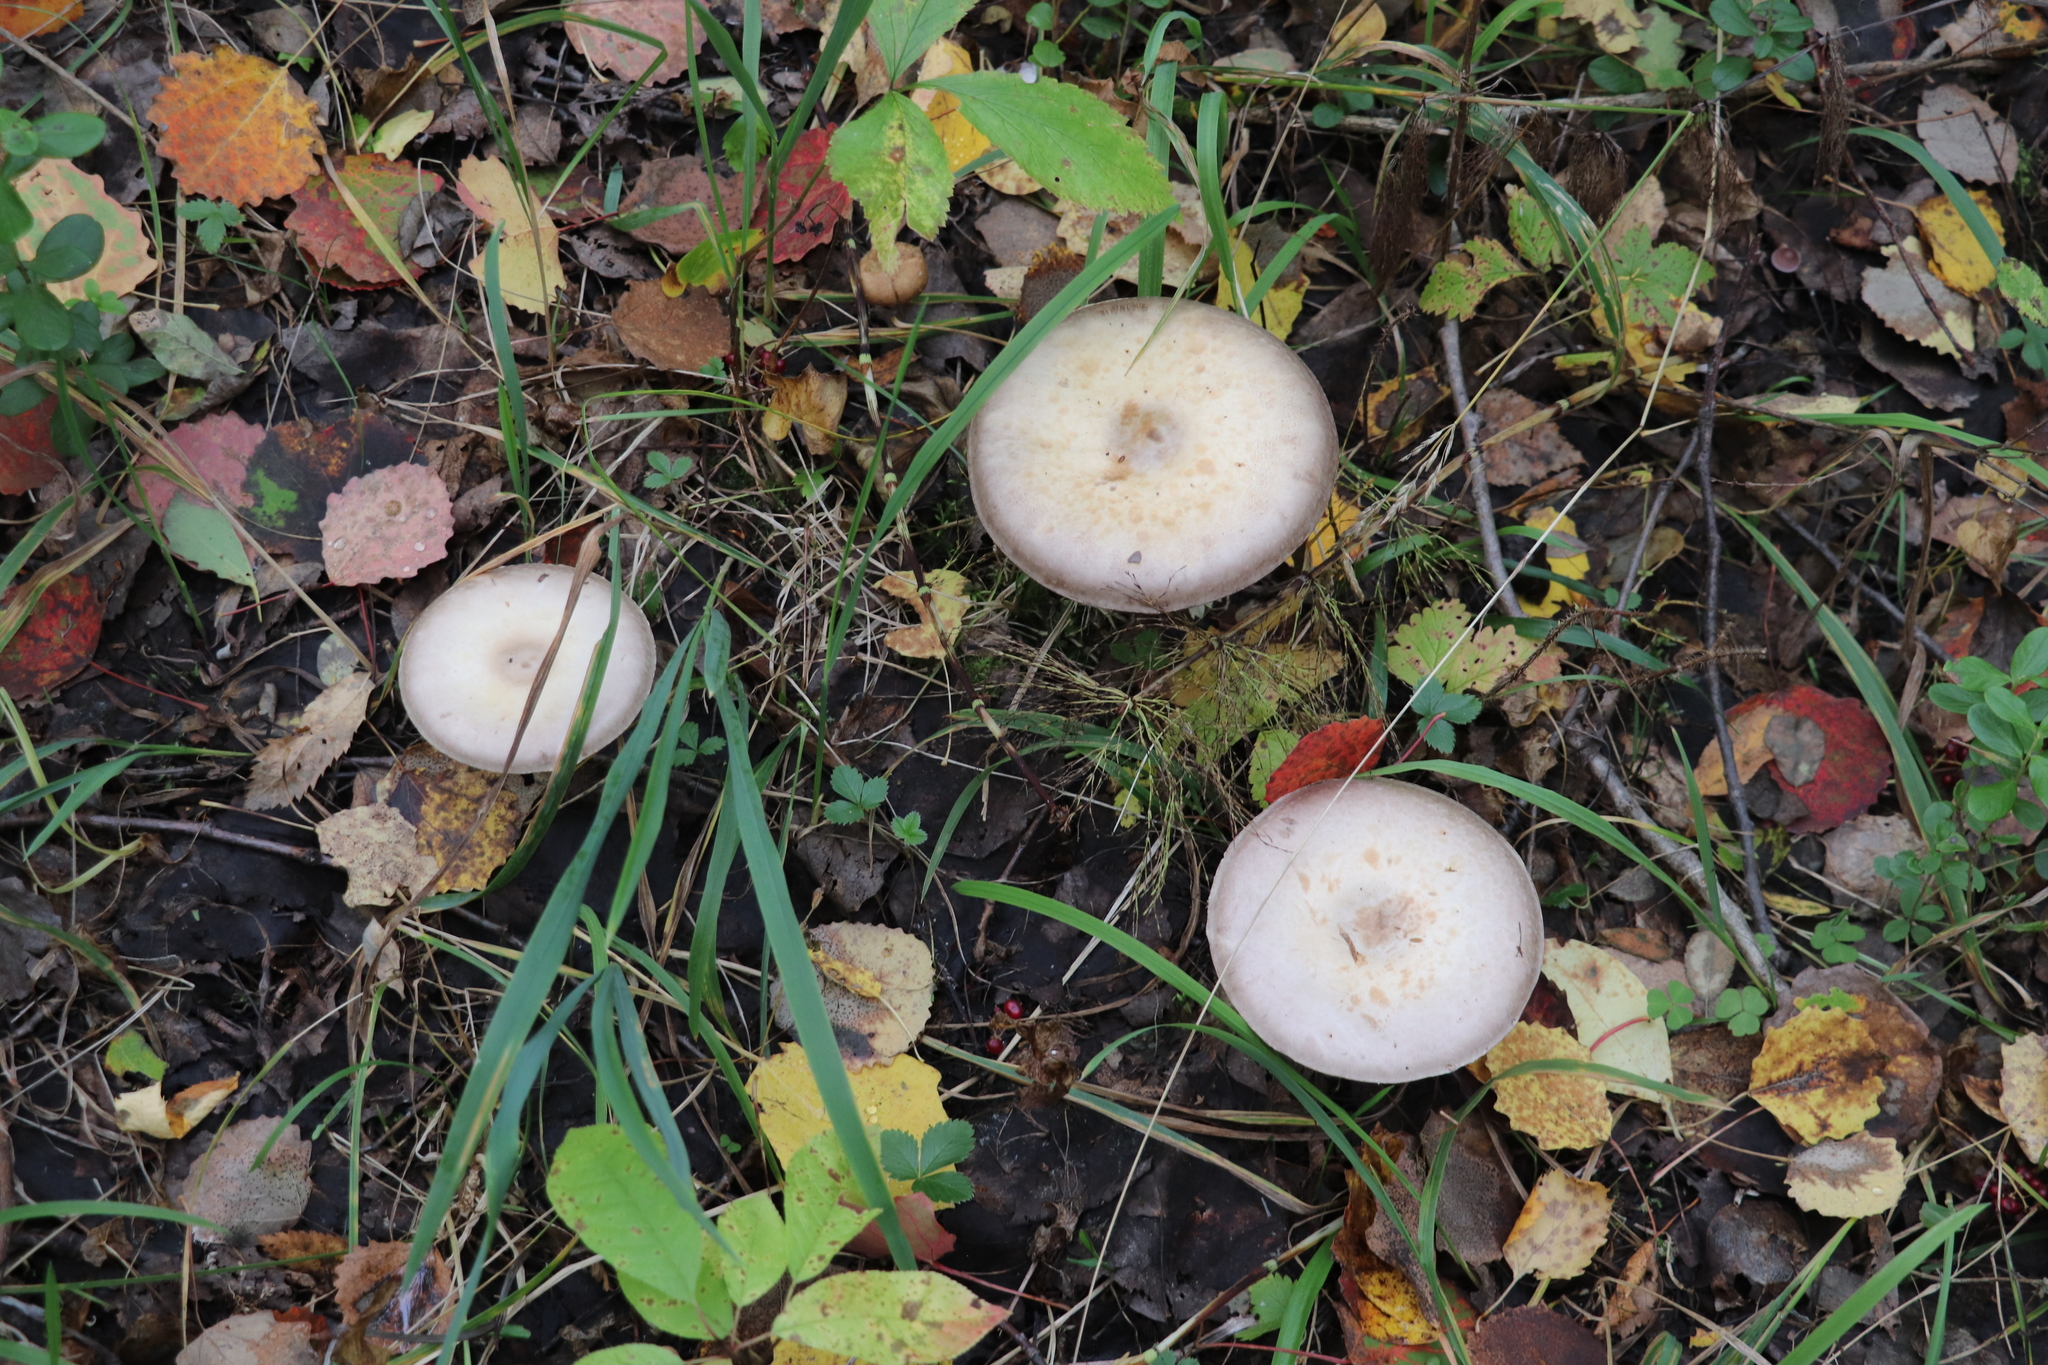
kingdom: Fungi
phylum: Basidiomycota
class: Agaricomycetes
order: Agaricales
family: Agaricaceae
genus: Agaricus
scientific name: Agaricus sylvicola
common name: Wood mushroom
